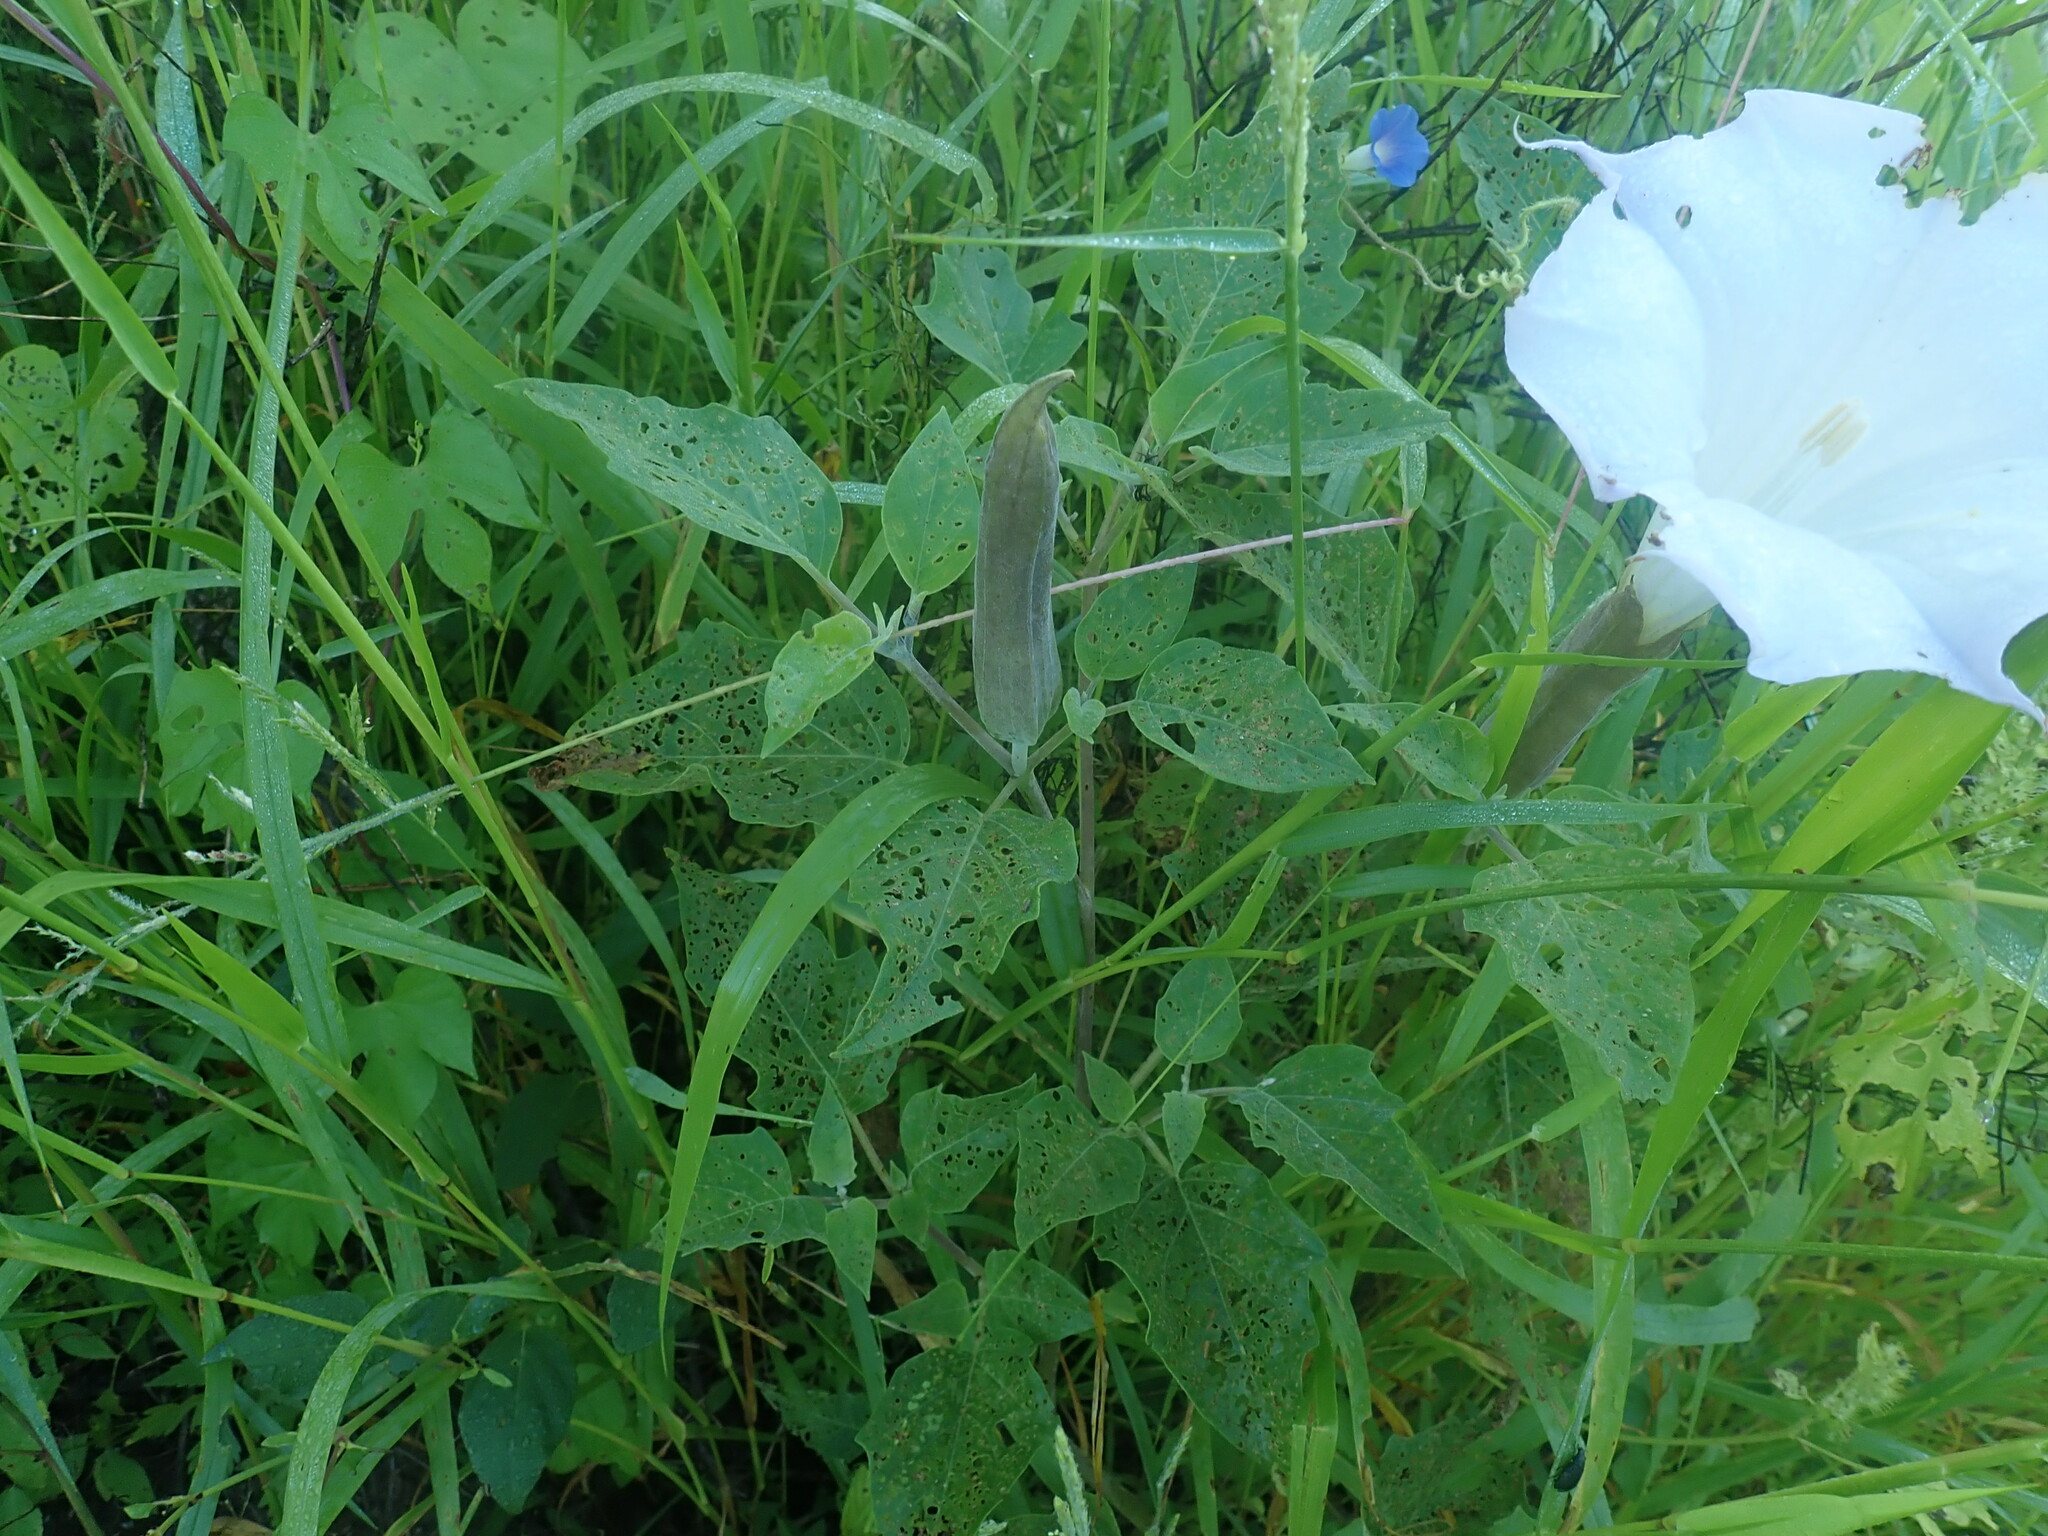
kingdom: Plantae
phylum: Tracheophyta
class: Magnoliopsida
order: Solanales
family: Solanaceae
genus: Datura
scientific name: Datura wrightii
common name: Sacred thorn-apple
